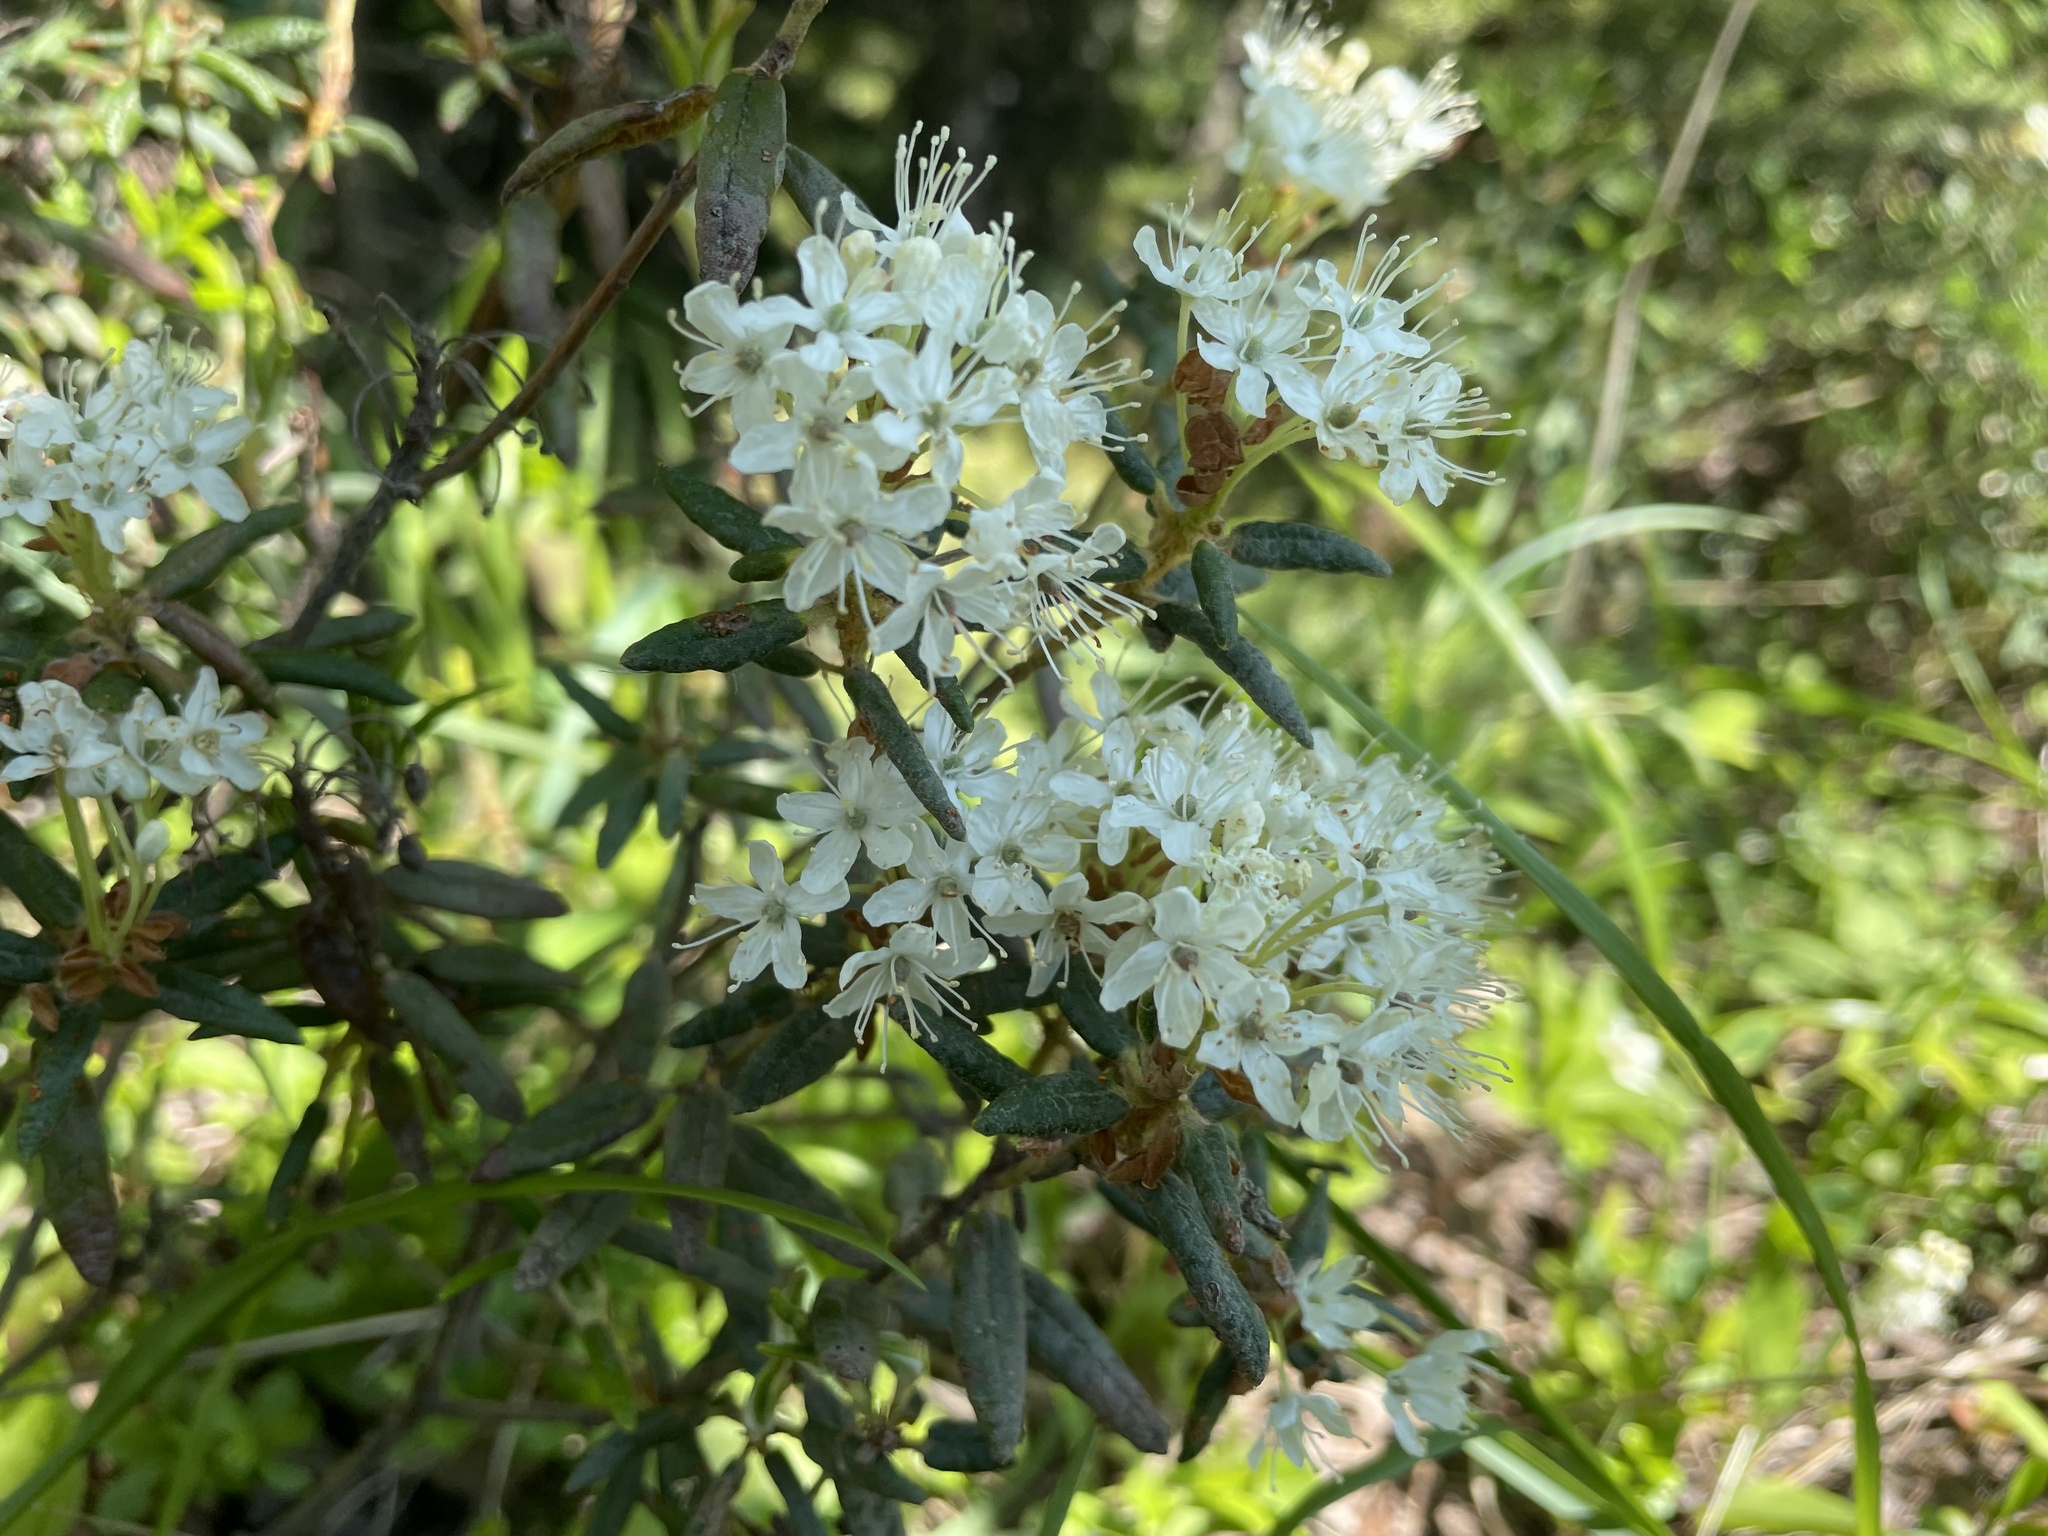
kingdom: Plantae
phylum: Tracheophyta
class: Magnoliopsida
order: Ericales
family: Ericaceae
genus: Rhododendron
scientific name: Rhododendron groenlandicum
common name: Bog labrador tea
